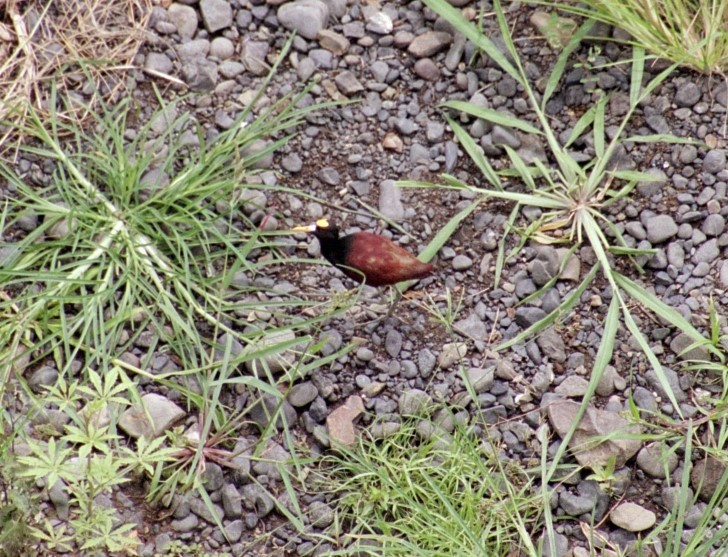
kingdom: Animalia
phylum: Chordata
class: Aves
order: Charadriiformes
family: Jacanidae
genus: Jacana
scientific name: Jacana spinosa
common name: Northern jacana
